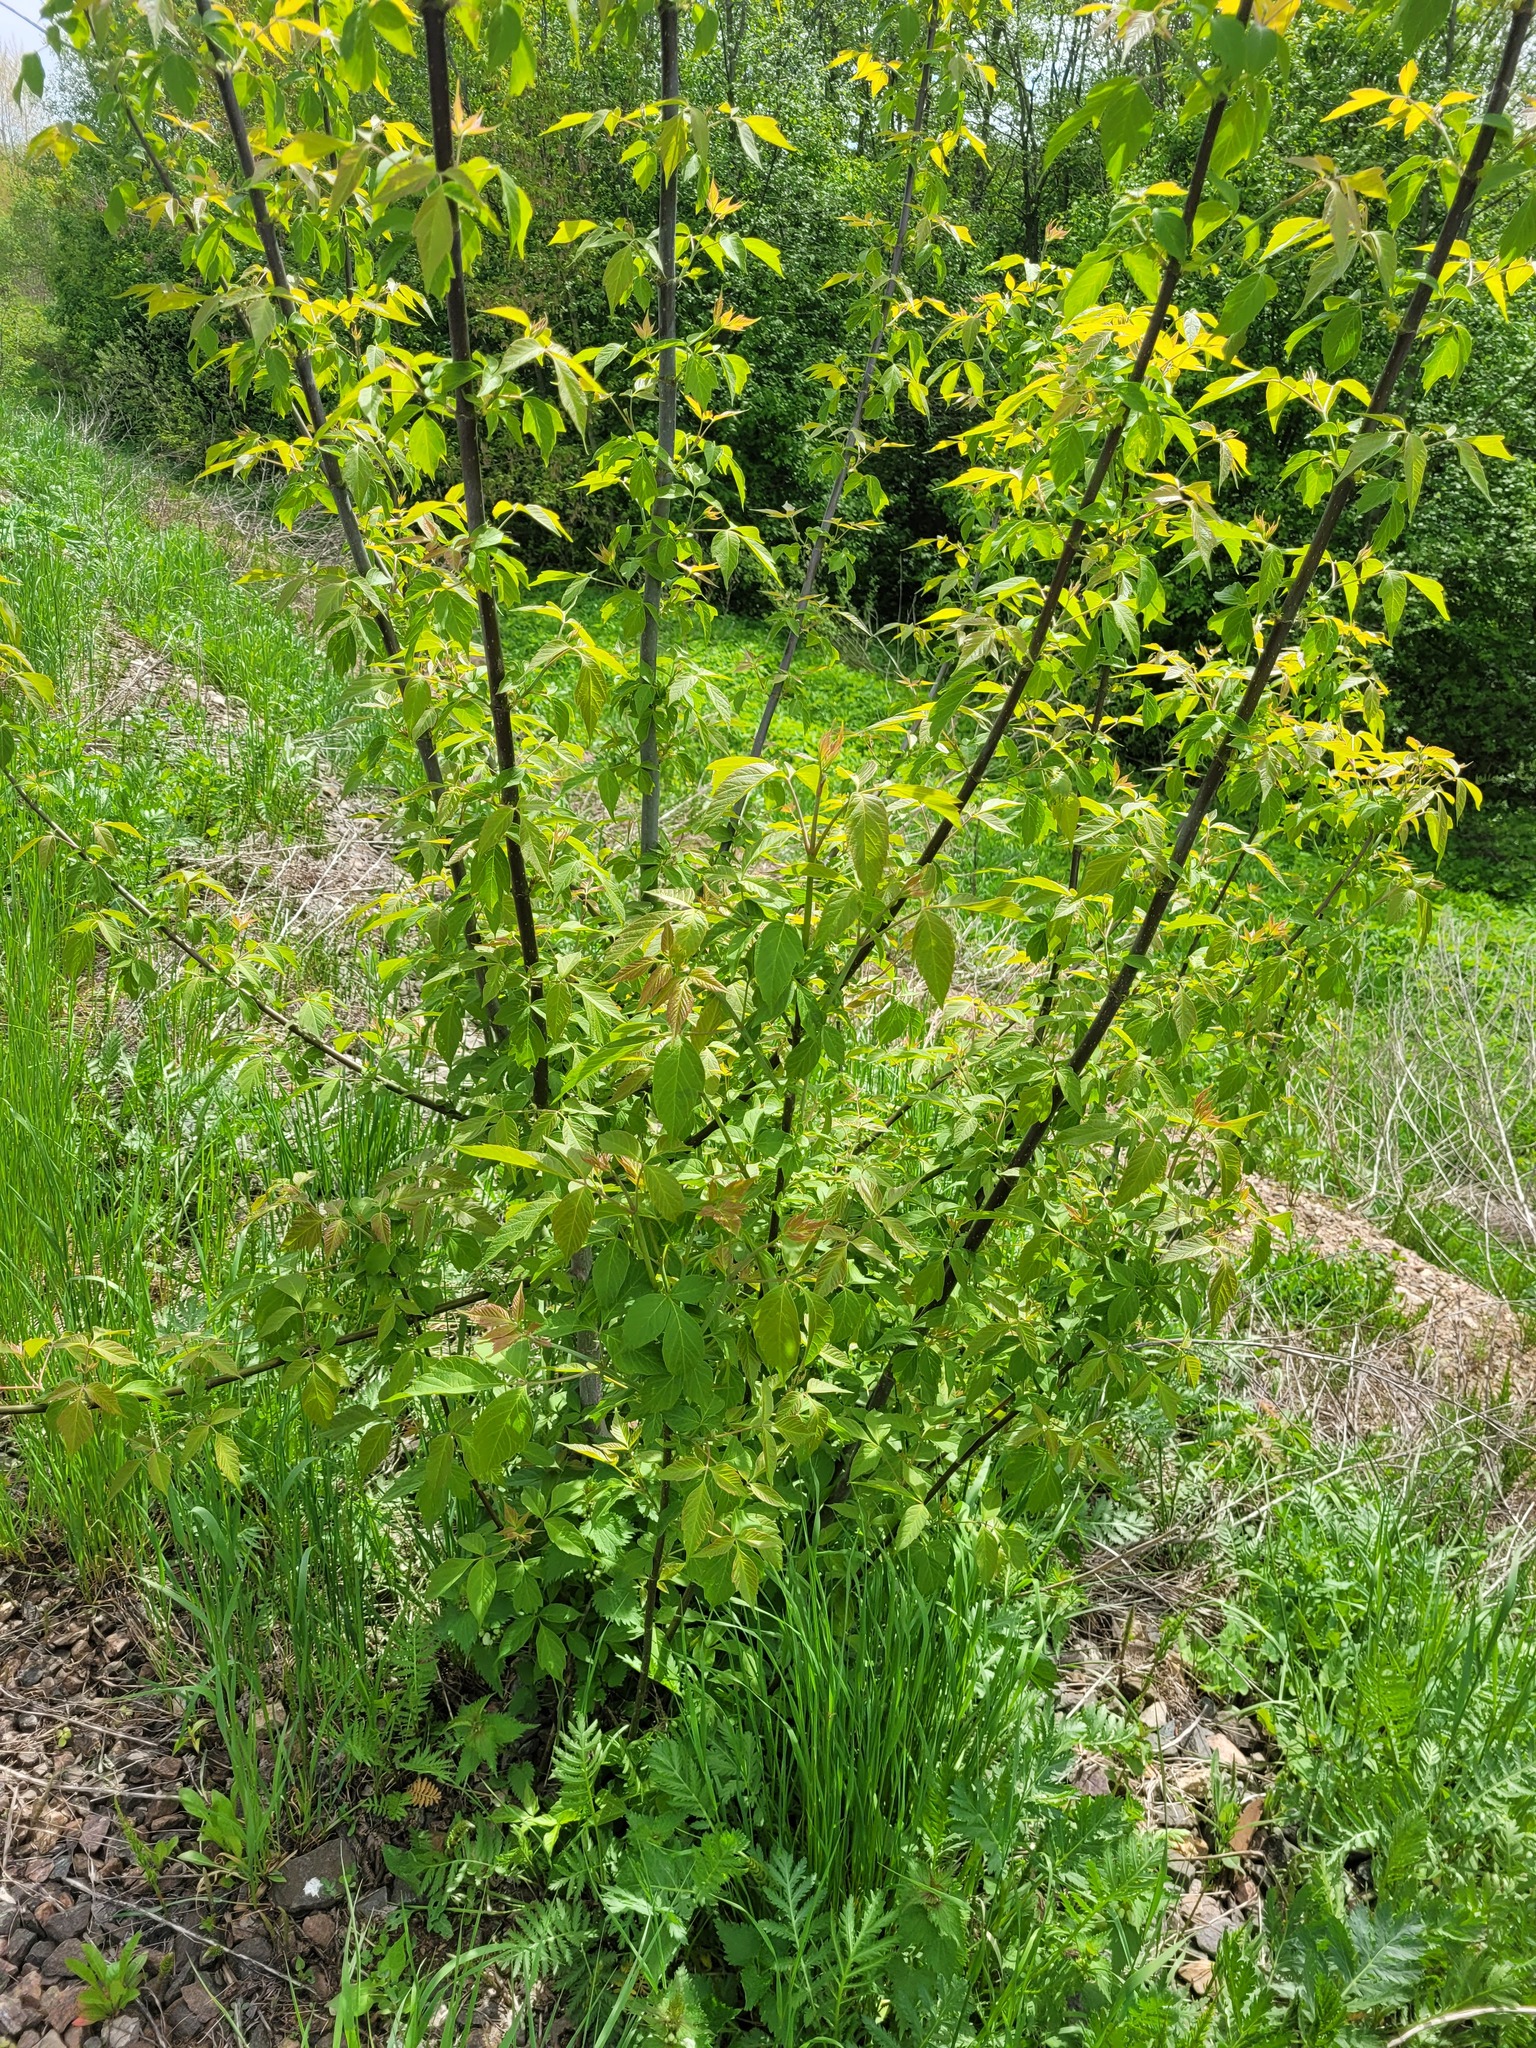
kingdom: Plantae
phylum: Tracheophyta
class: Magnoliopsida
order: Sapindales
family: Sapindaceae
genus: Acer
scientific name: Acer negundo
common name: Ashleaf maple
